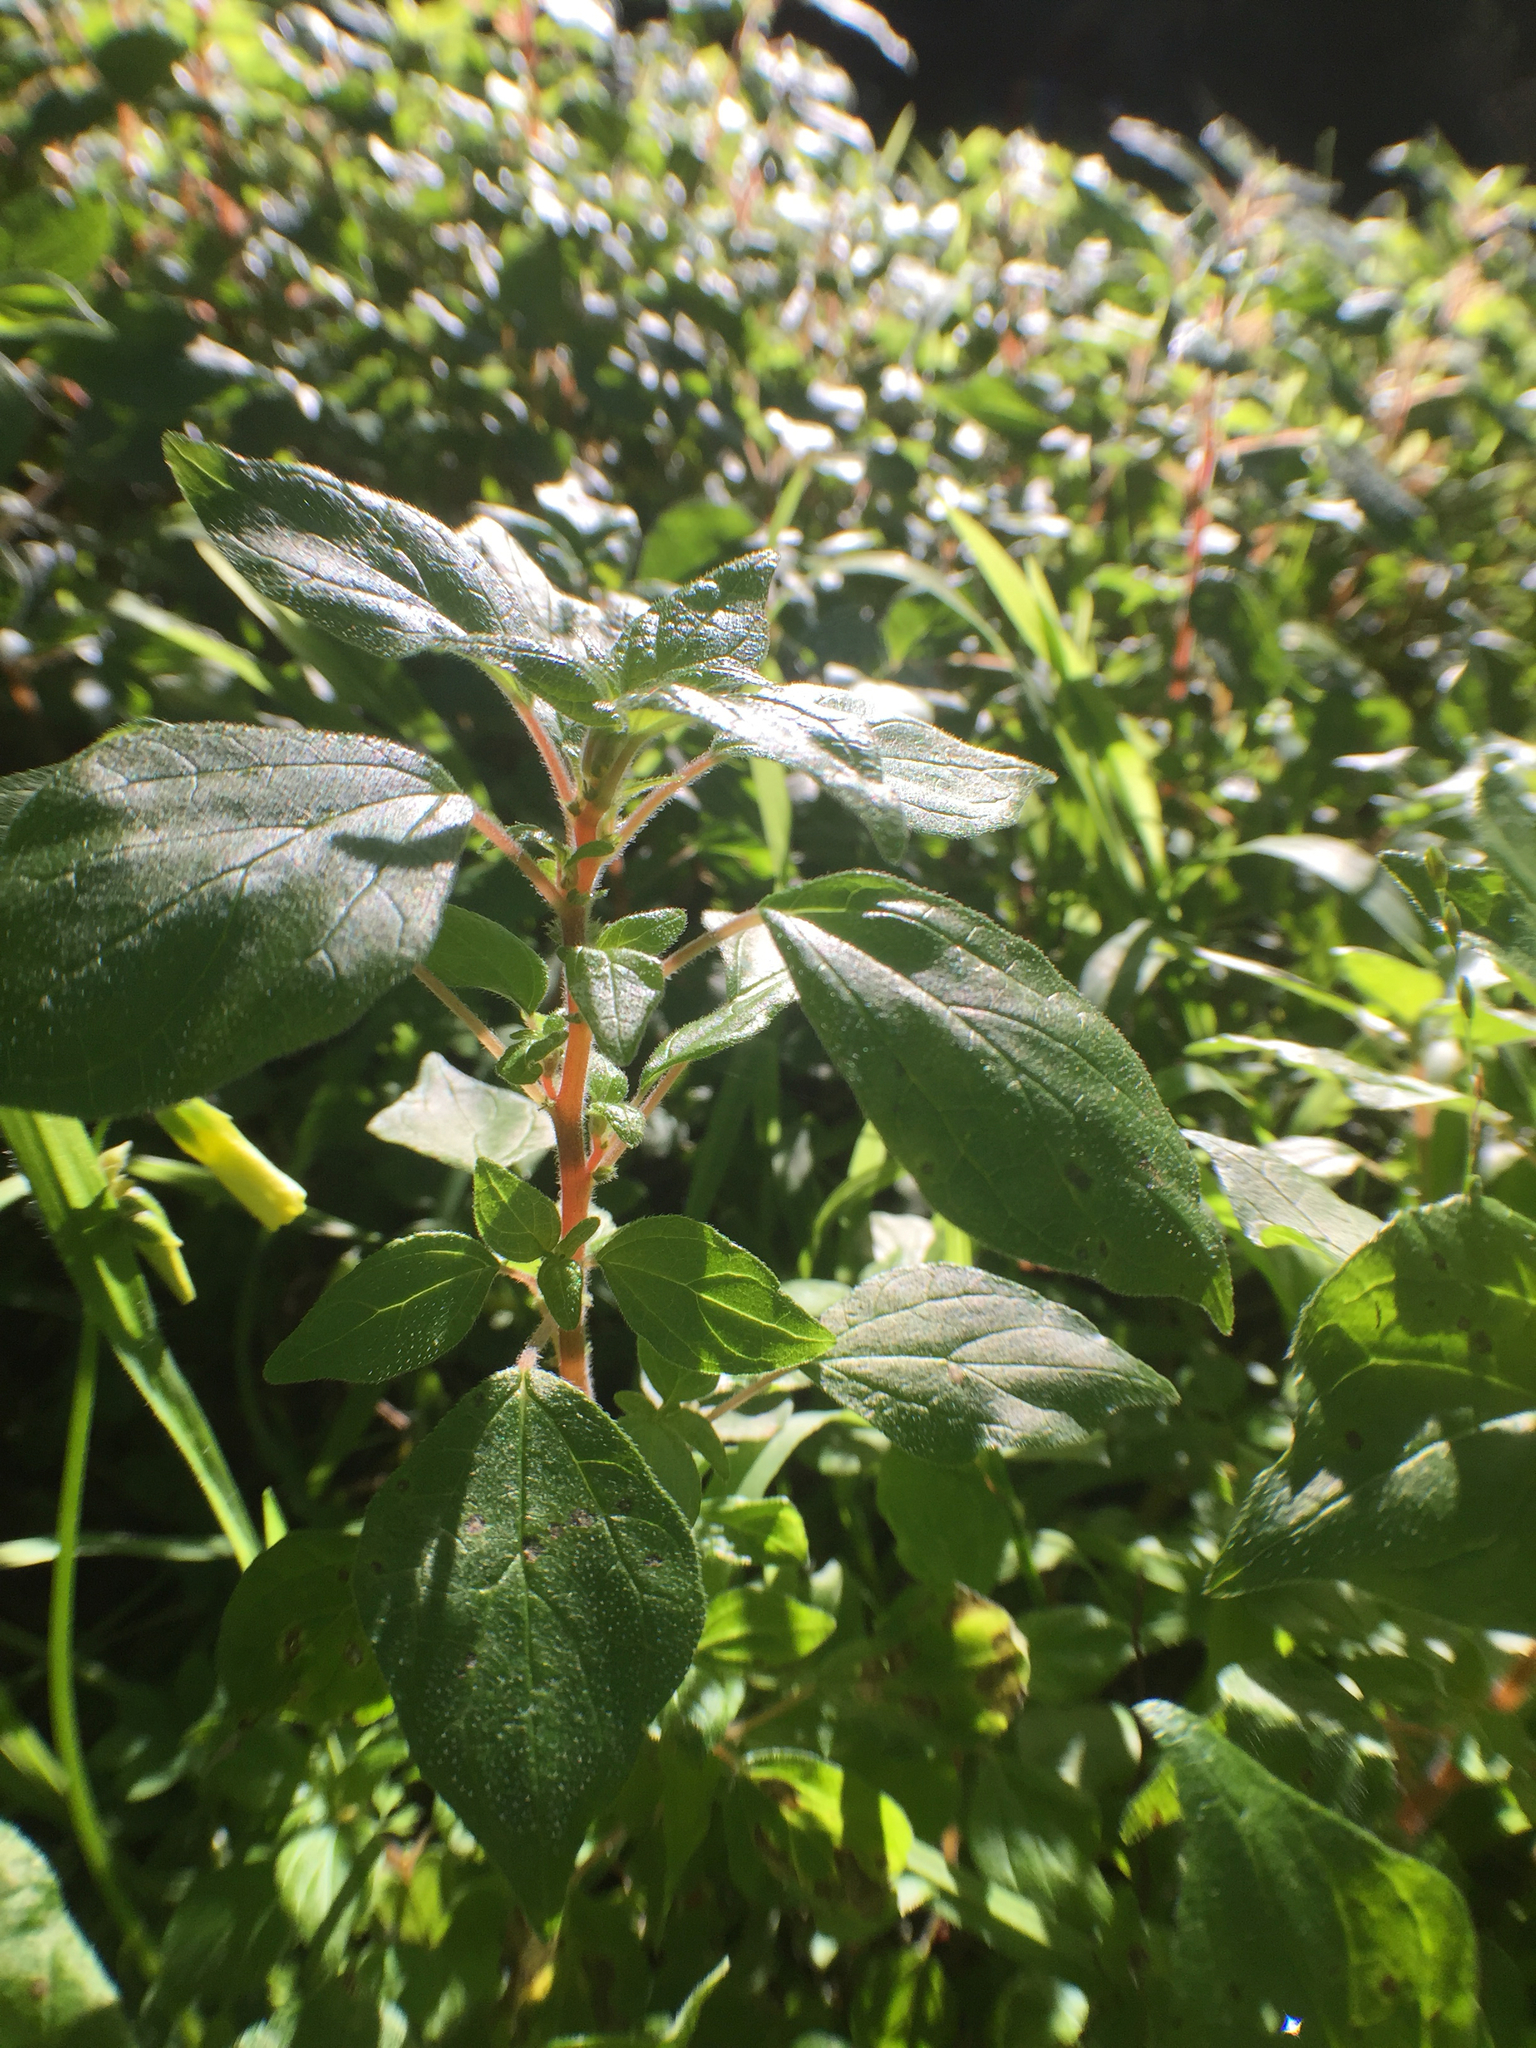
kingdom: Plantae
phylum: Tracheophyta
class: Magnoliopsida
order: Rosales
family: Urticaceae
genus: Parietaria
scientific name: Parietaria judaica
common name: Pellitory-of-the-wall
